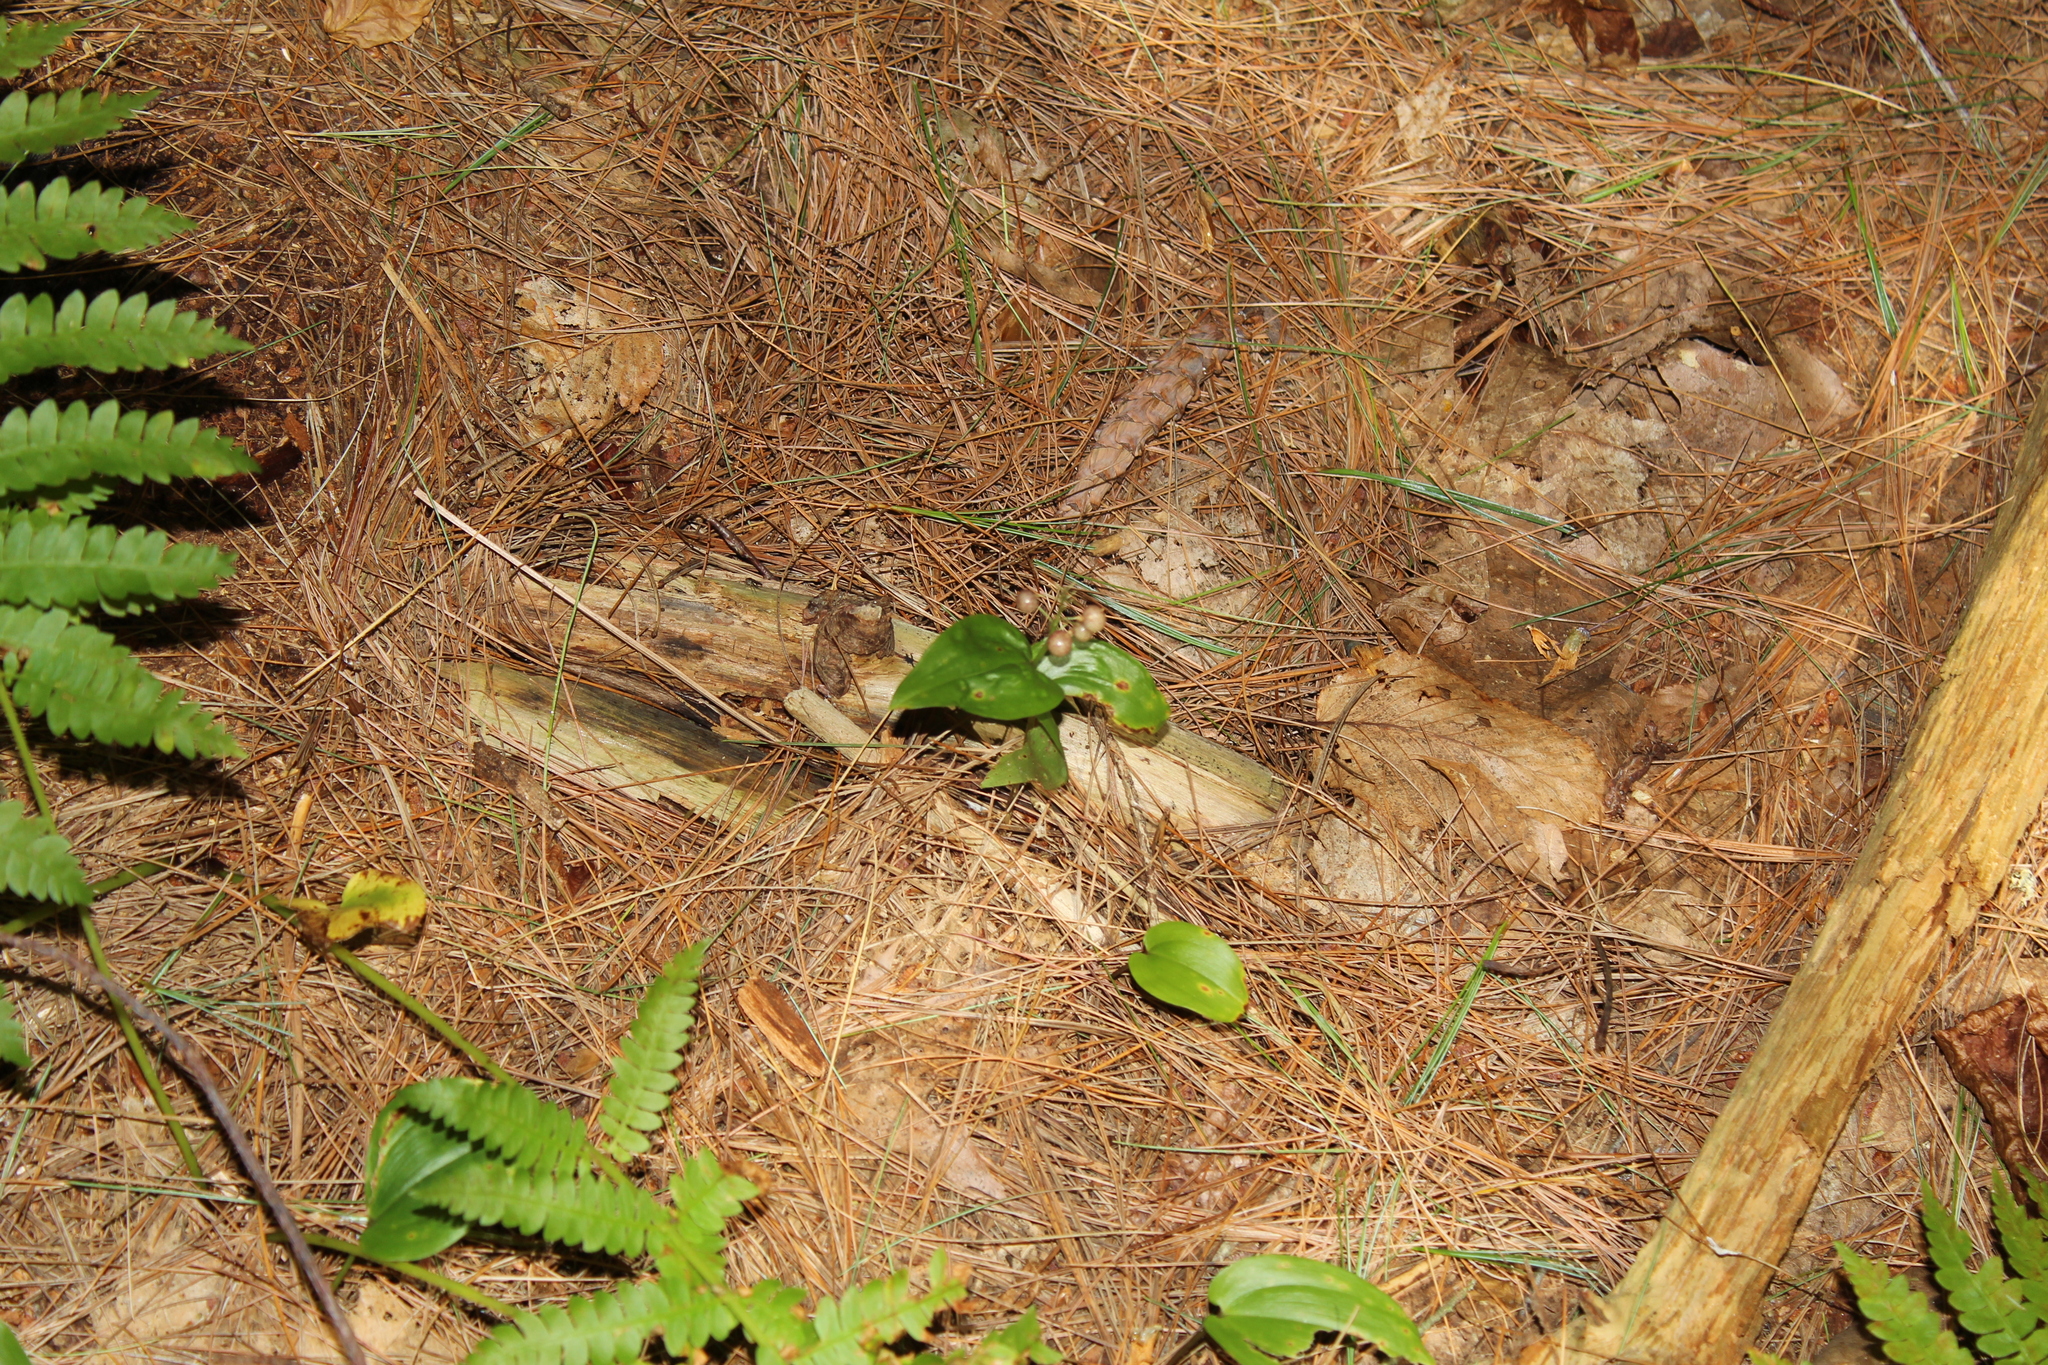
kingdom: Plantae
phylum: Tracheophyta
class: Liliopsida
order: Asparagales
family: Asparagaceae
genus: Maianthemum
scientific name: Maianthemum canadense
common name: False lily-of-the-valley
